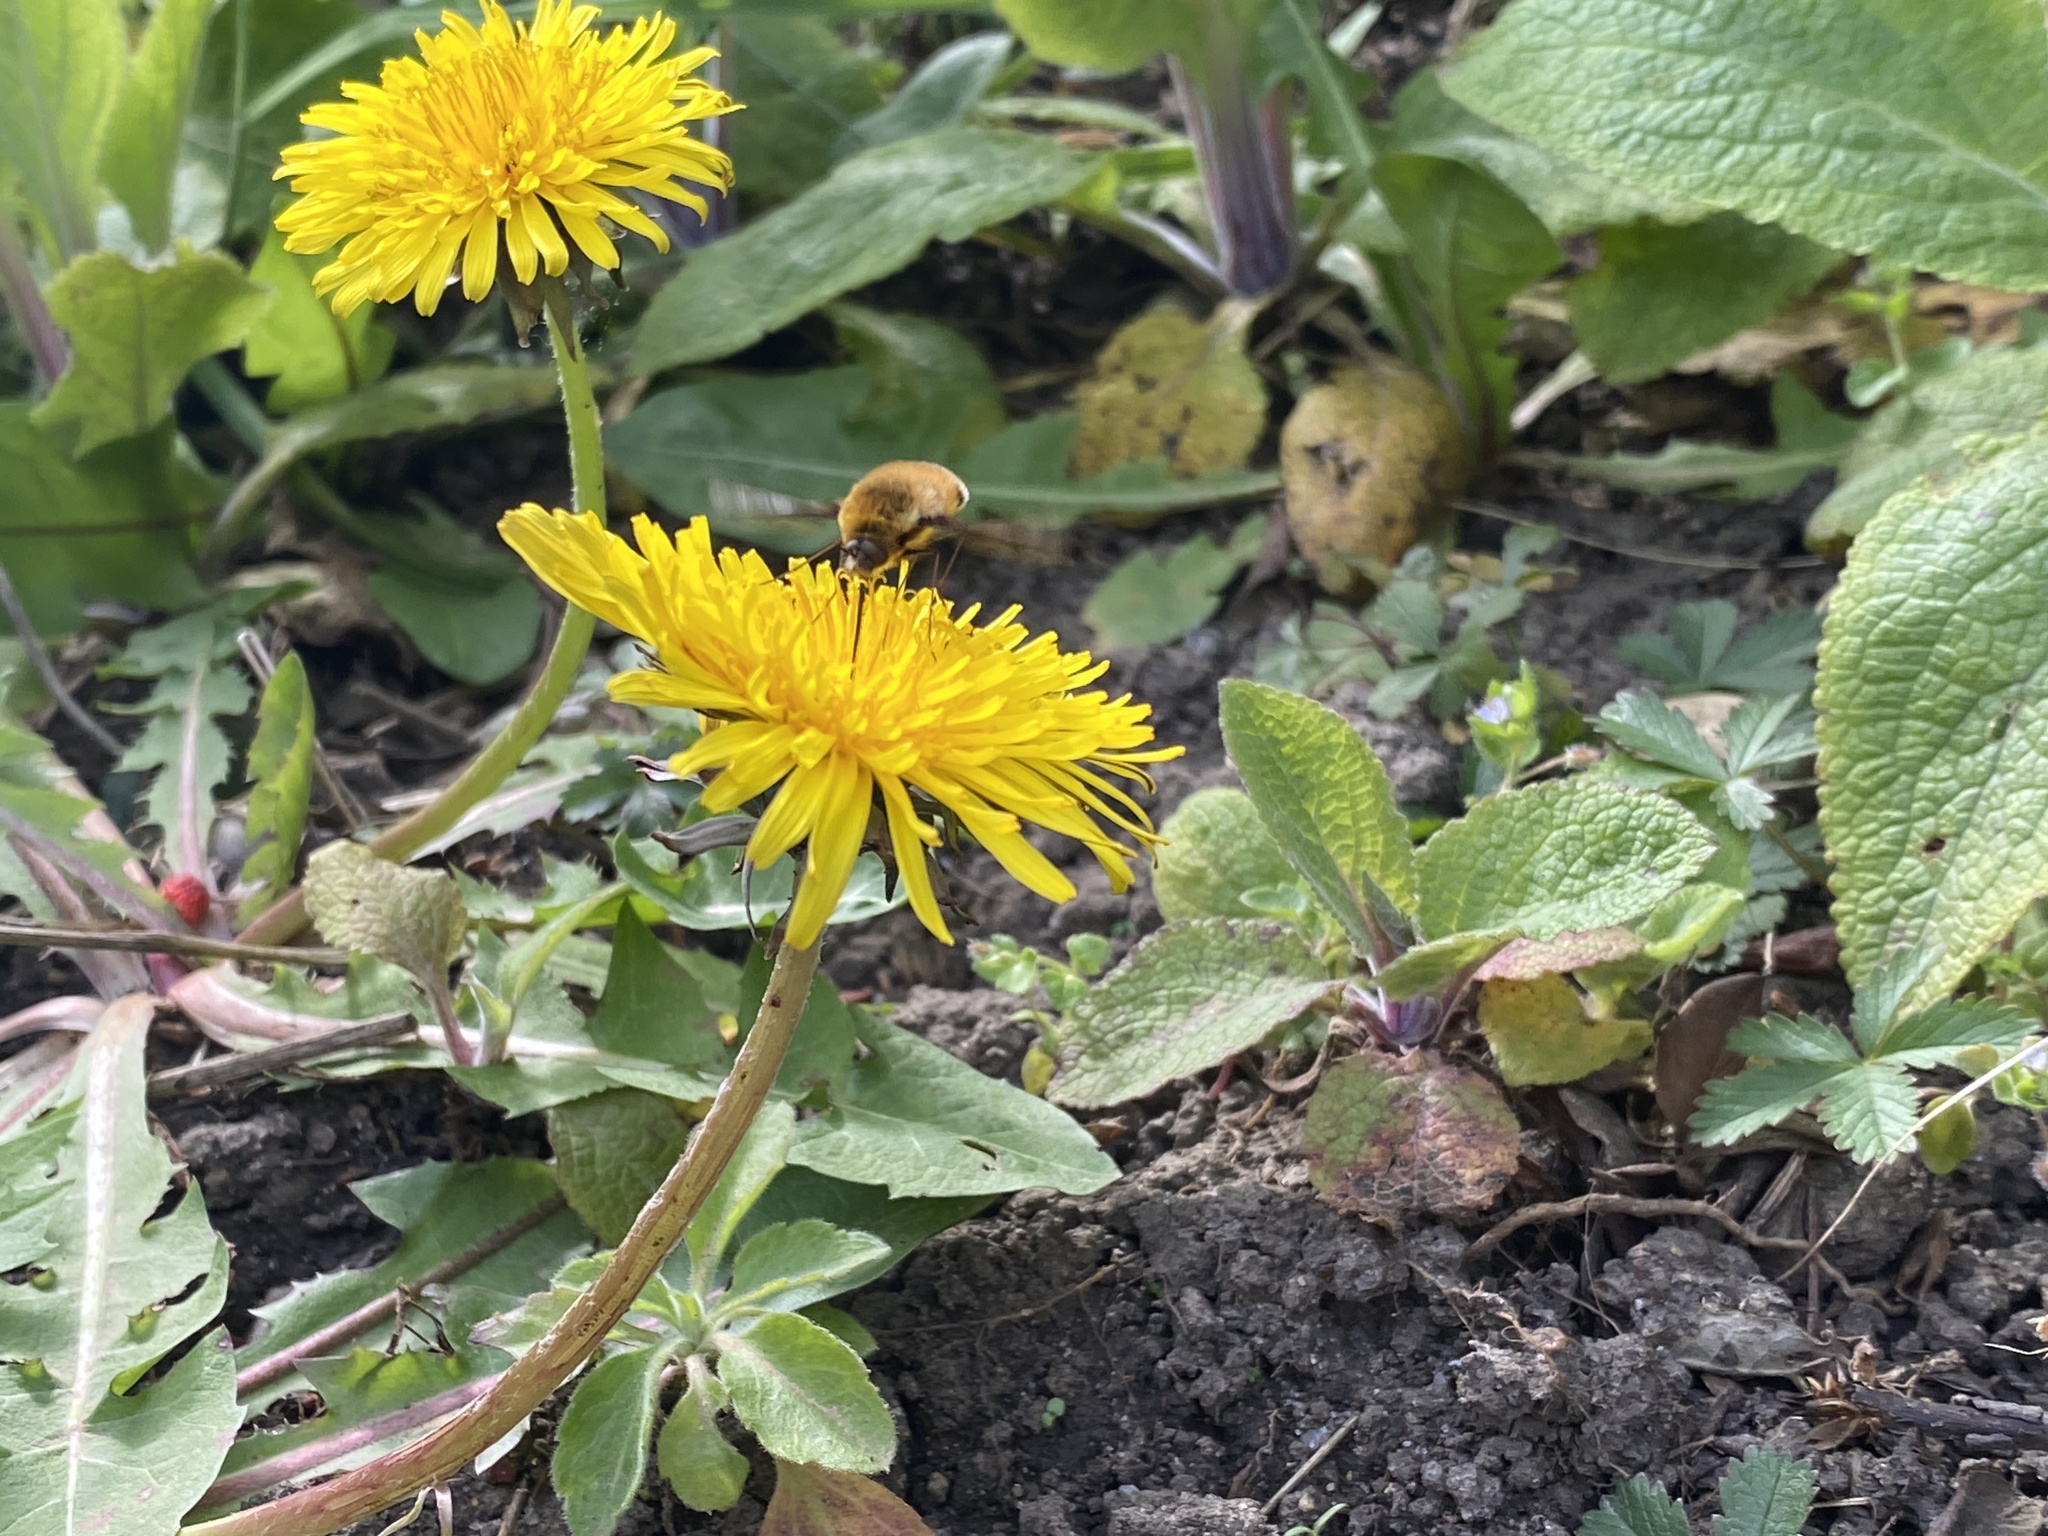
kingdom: Animalia
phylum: Arthropoda
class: Insecta
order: Diptera
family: Bombyliidae
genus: Bombylius
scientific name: Bombylius major
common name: Bee fly
